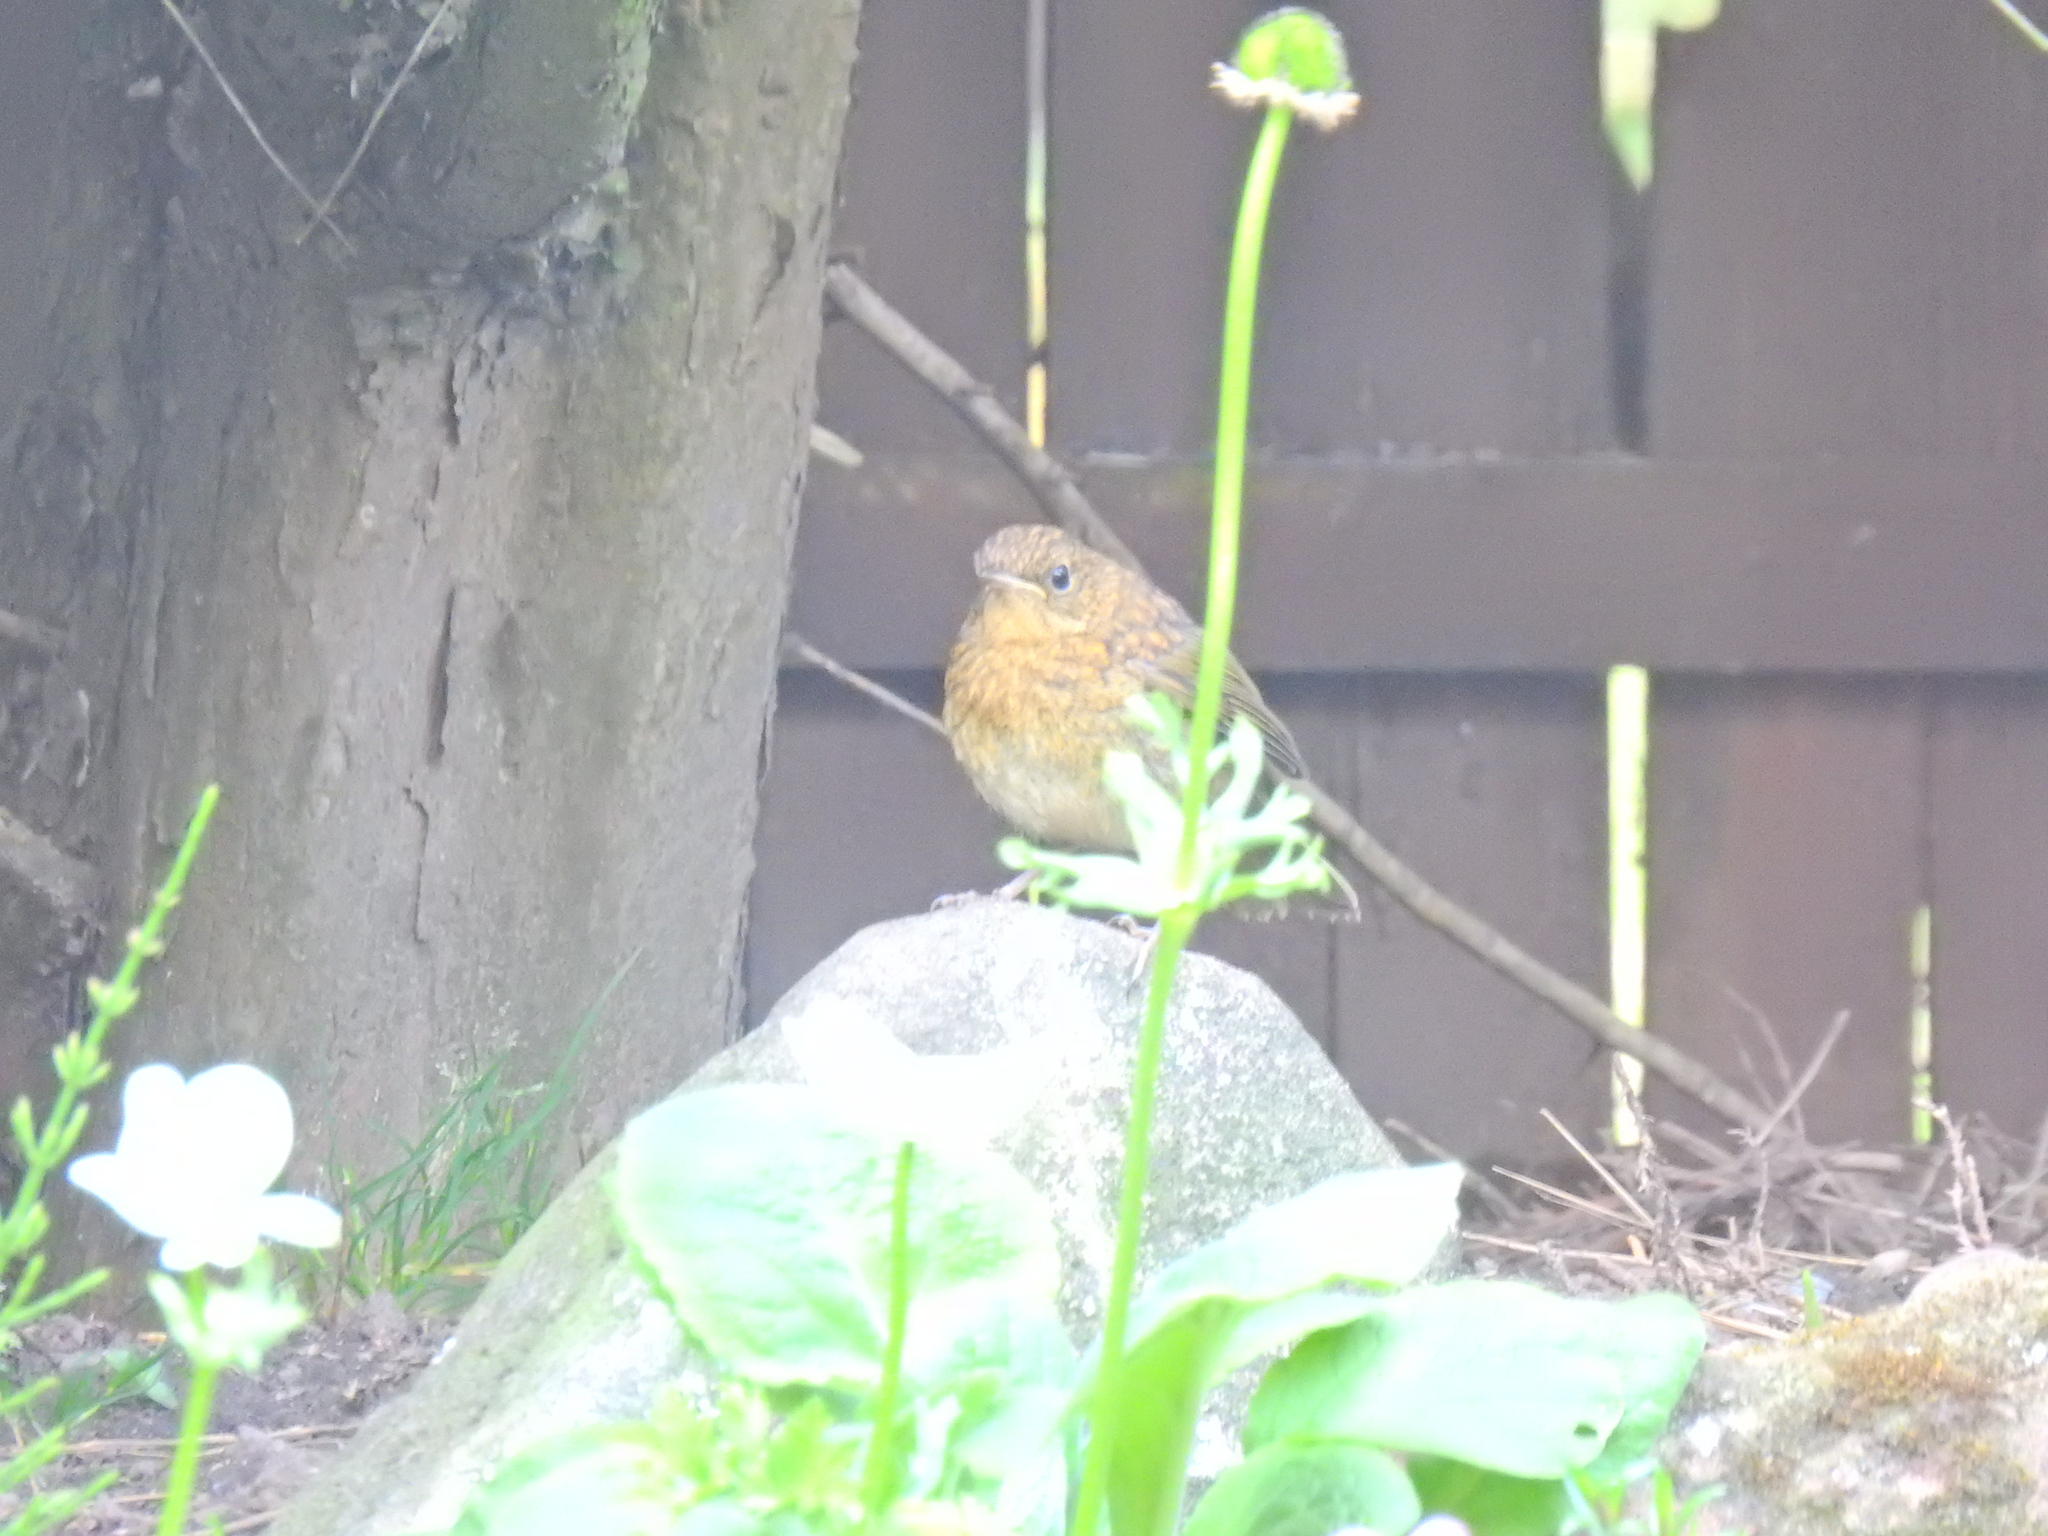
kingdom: Animalia
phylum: Chordata
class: Aves
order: Passeriformes
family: Muscicapidae
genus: Erithacus
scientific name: Erithacus rubecula
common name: European robin
